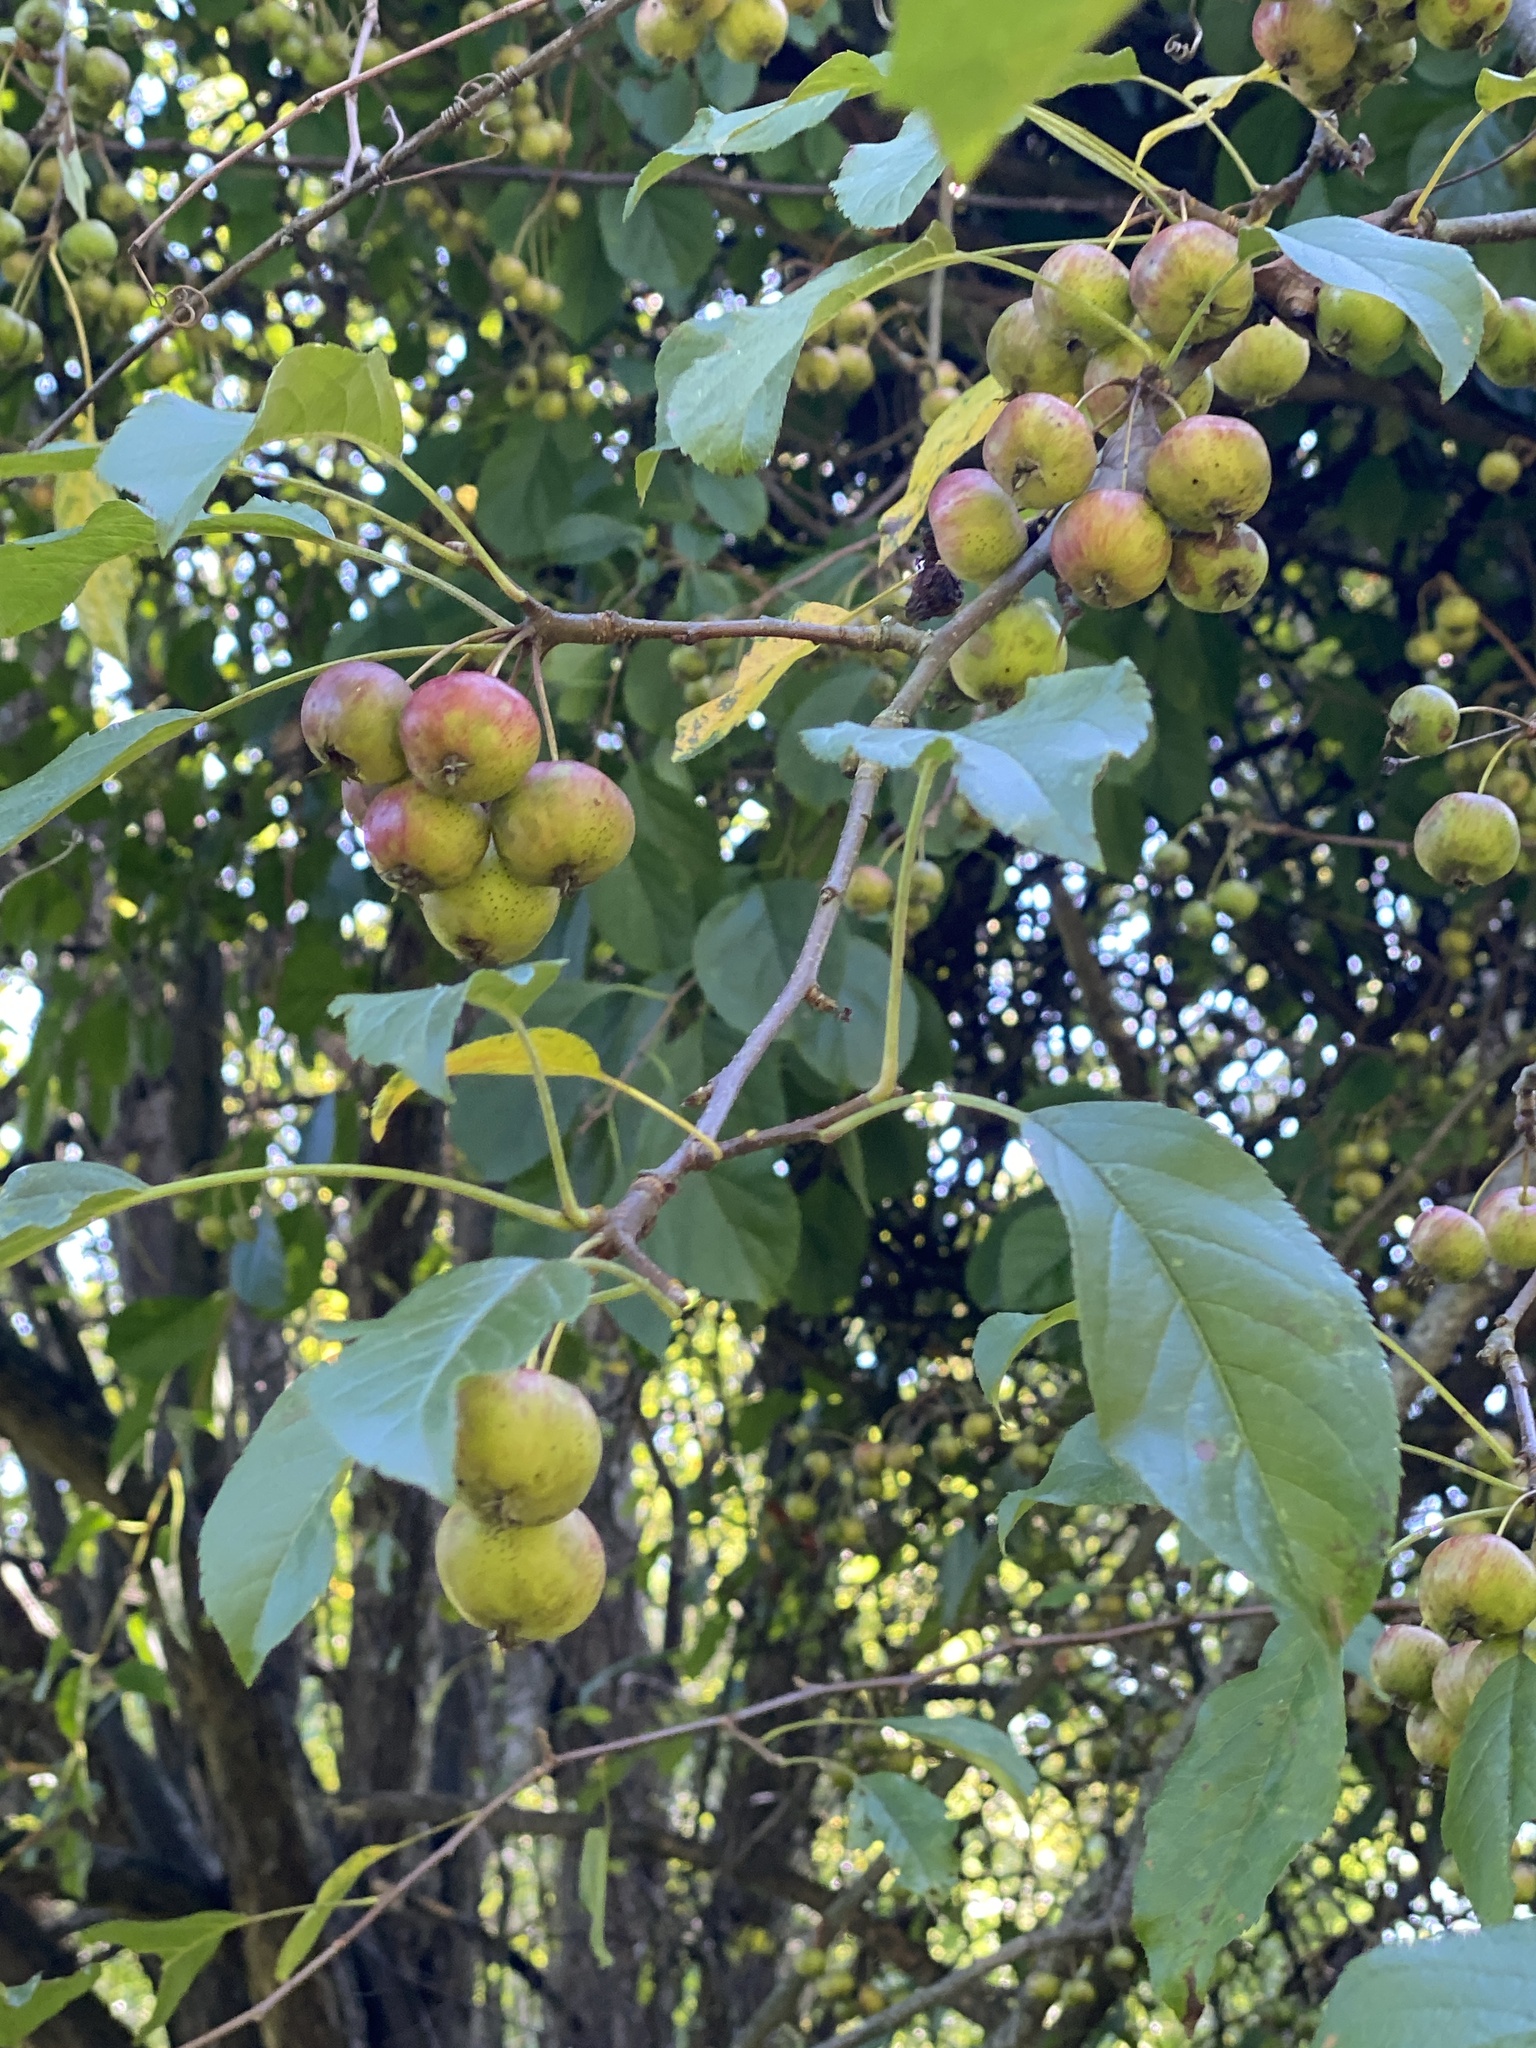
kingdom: Plantae
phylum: Tracheophyta
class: Magnoliopsida
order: Rosales
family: Rosaceae
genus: Malus
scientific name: Malus domestica
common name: Apple
